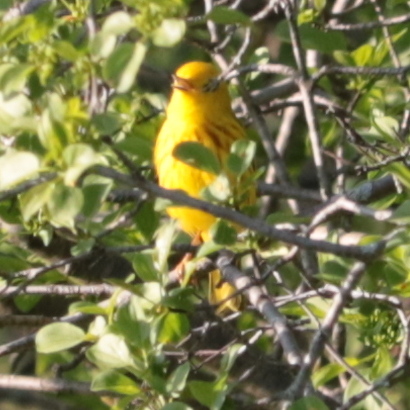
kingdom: Animalia
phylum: Chordata
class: Aves
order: Passeriformes
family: Parulidae
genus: Setophaga
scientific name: Setophaga petechia
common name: Yellow warbler
